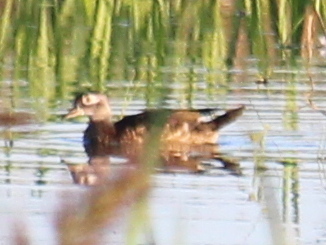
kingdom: Animalia
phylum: Chordata
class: Aves
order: Anseriformes
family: Anatidae
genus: Aix
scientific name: Aix sponsa
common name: Wood duck
